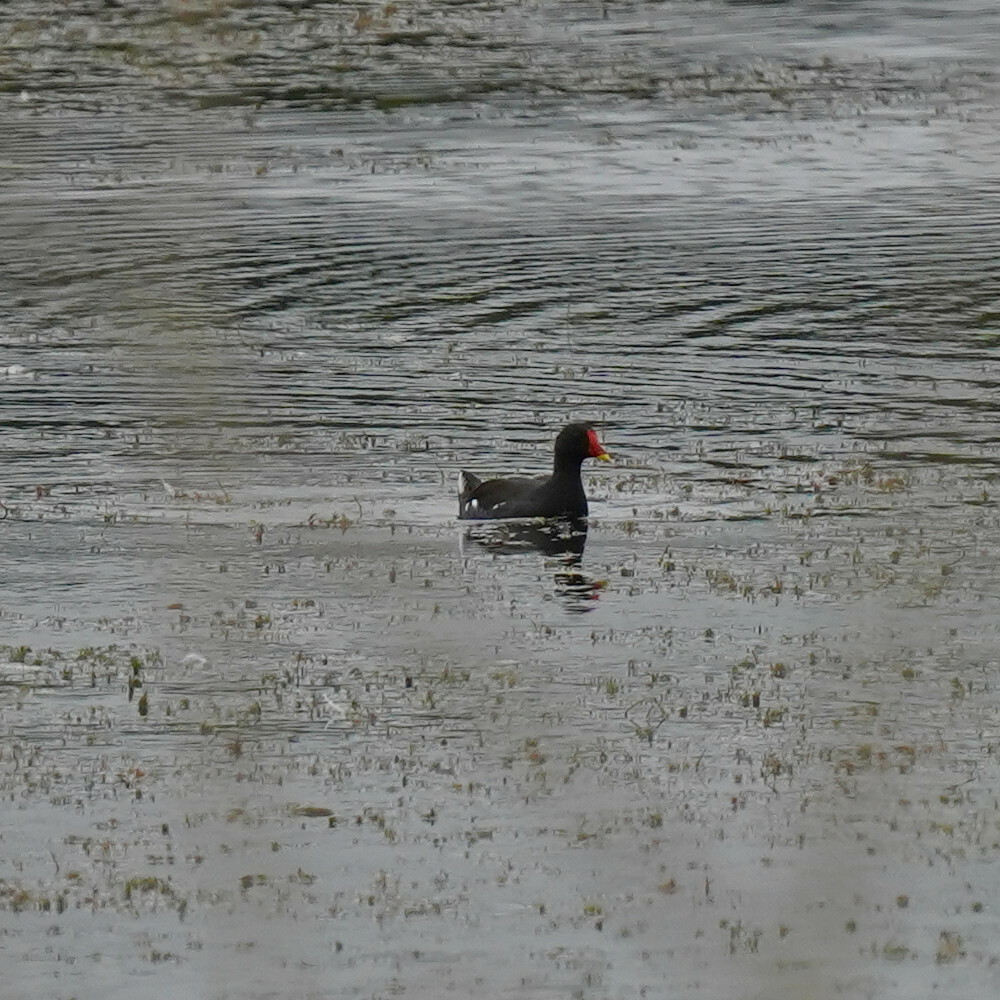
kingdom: Animalia
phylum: Chordata
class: Aves
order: Gruiformes
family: Rallidae
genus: Gallinula
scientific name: Gallinula chloropus
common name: Common moorhen
